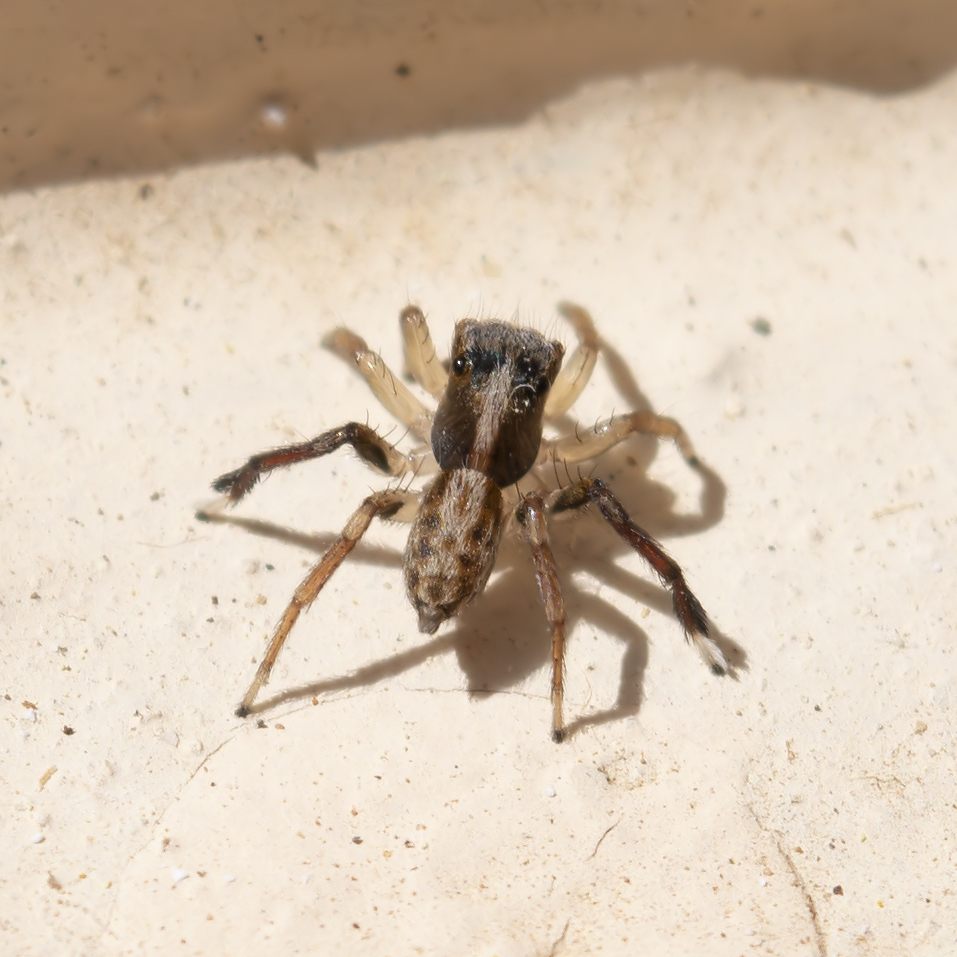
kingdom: Animalia
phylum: Arthropoda
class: Arachnida
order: Araneae
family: Salticidae
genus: Saitis
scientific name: Saitis tauricus
